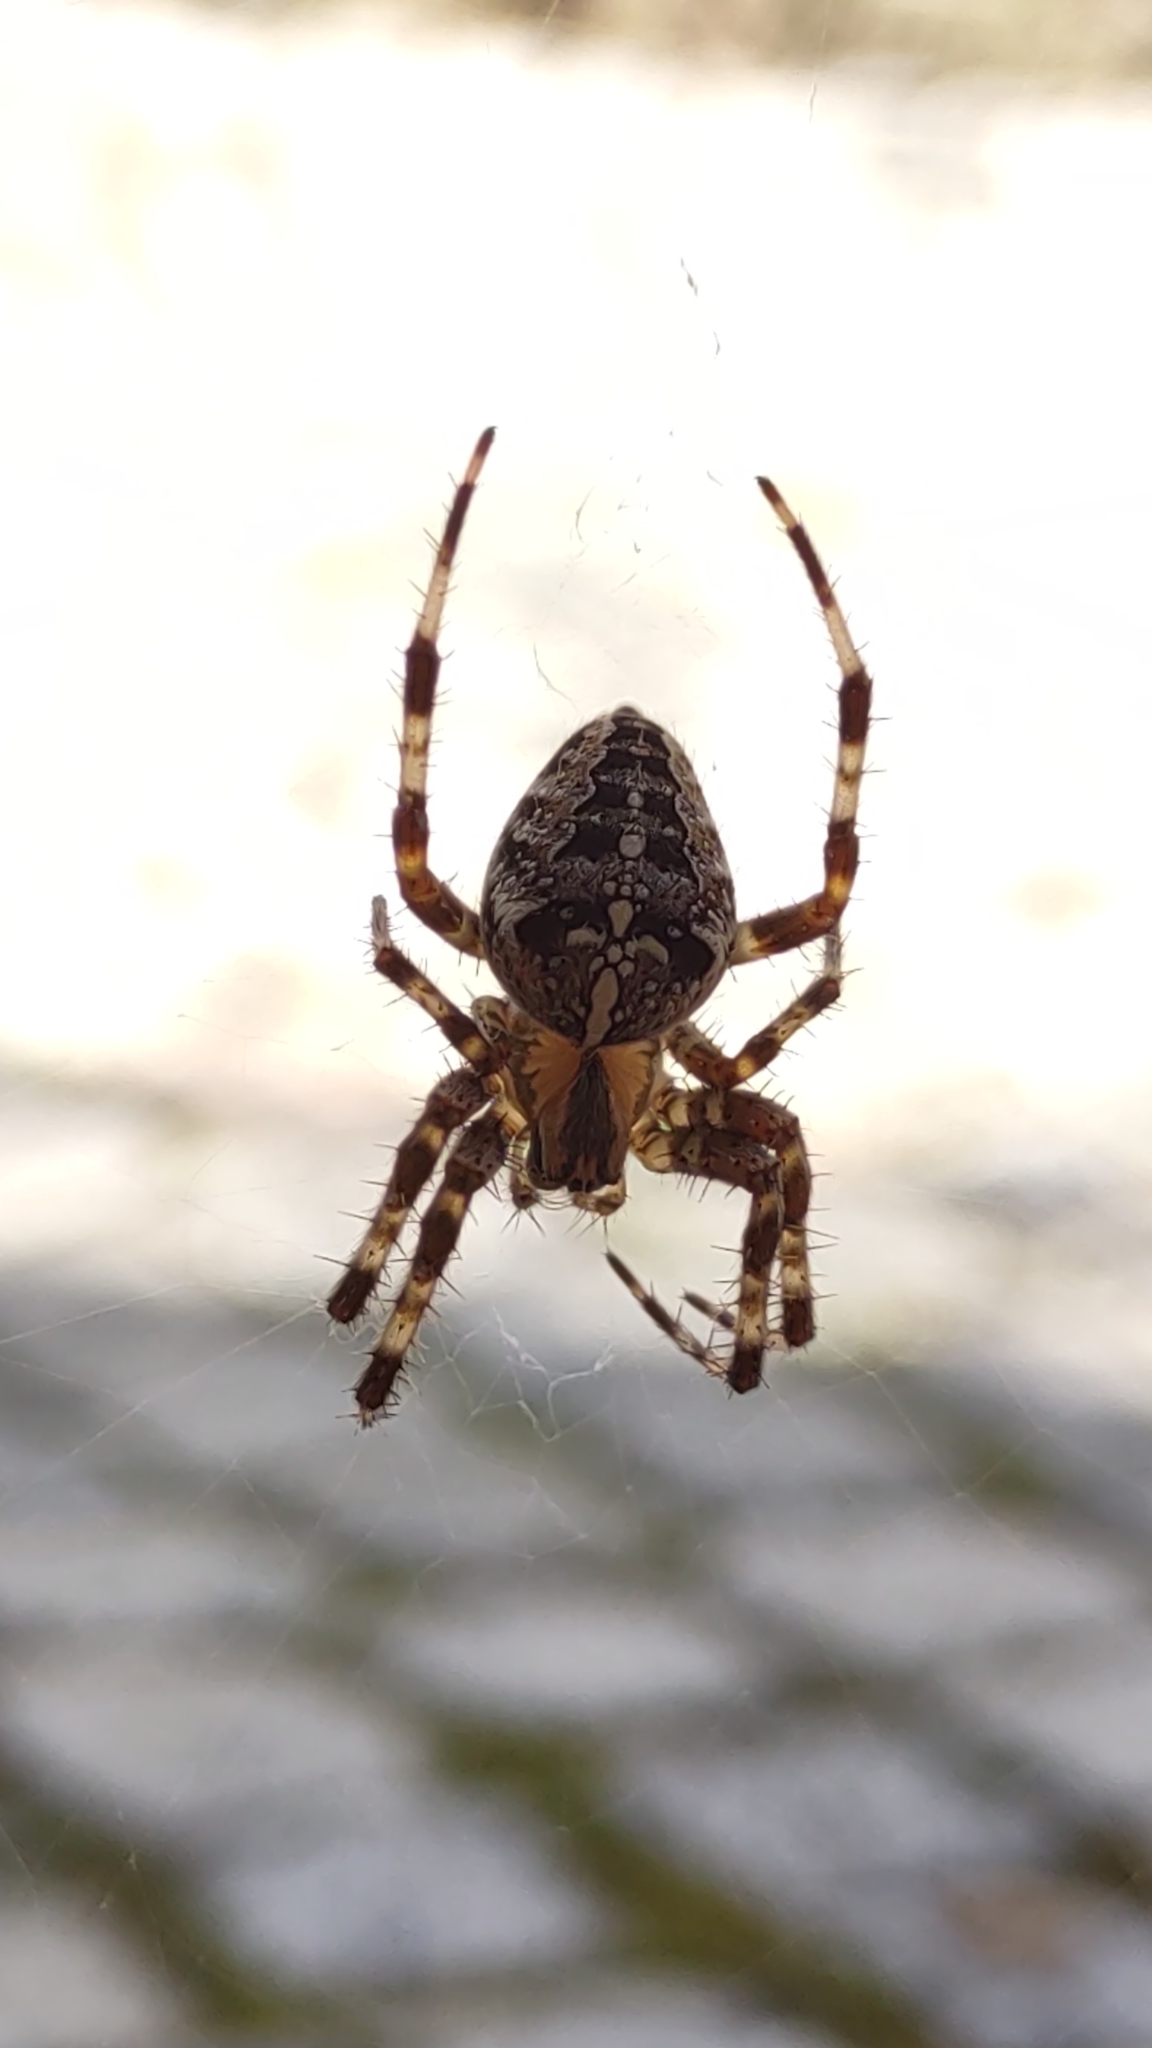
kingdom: Animalia
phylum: Arthropoda
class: Arachnida
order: Araneae
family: Araneidae
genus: Araneus
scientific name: Araneus diadematus
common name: Cross orbweaver
